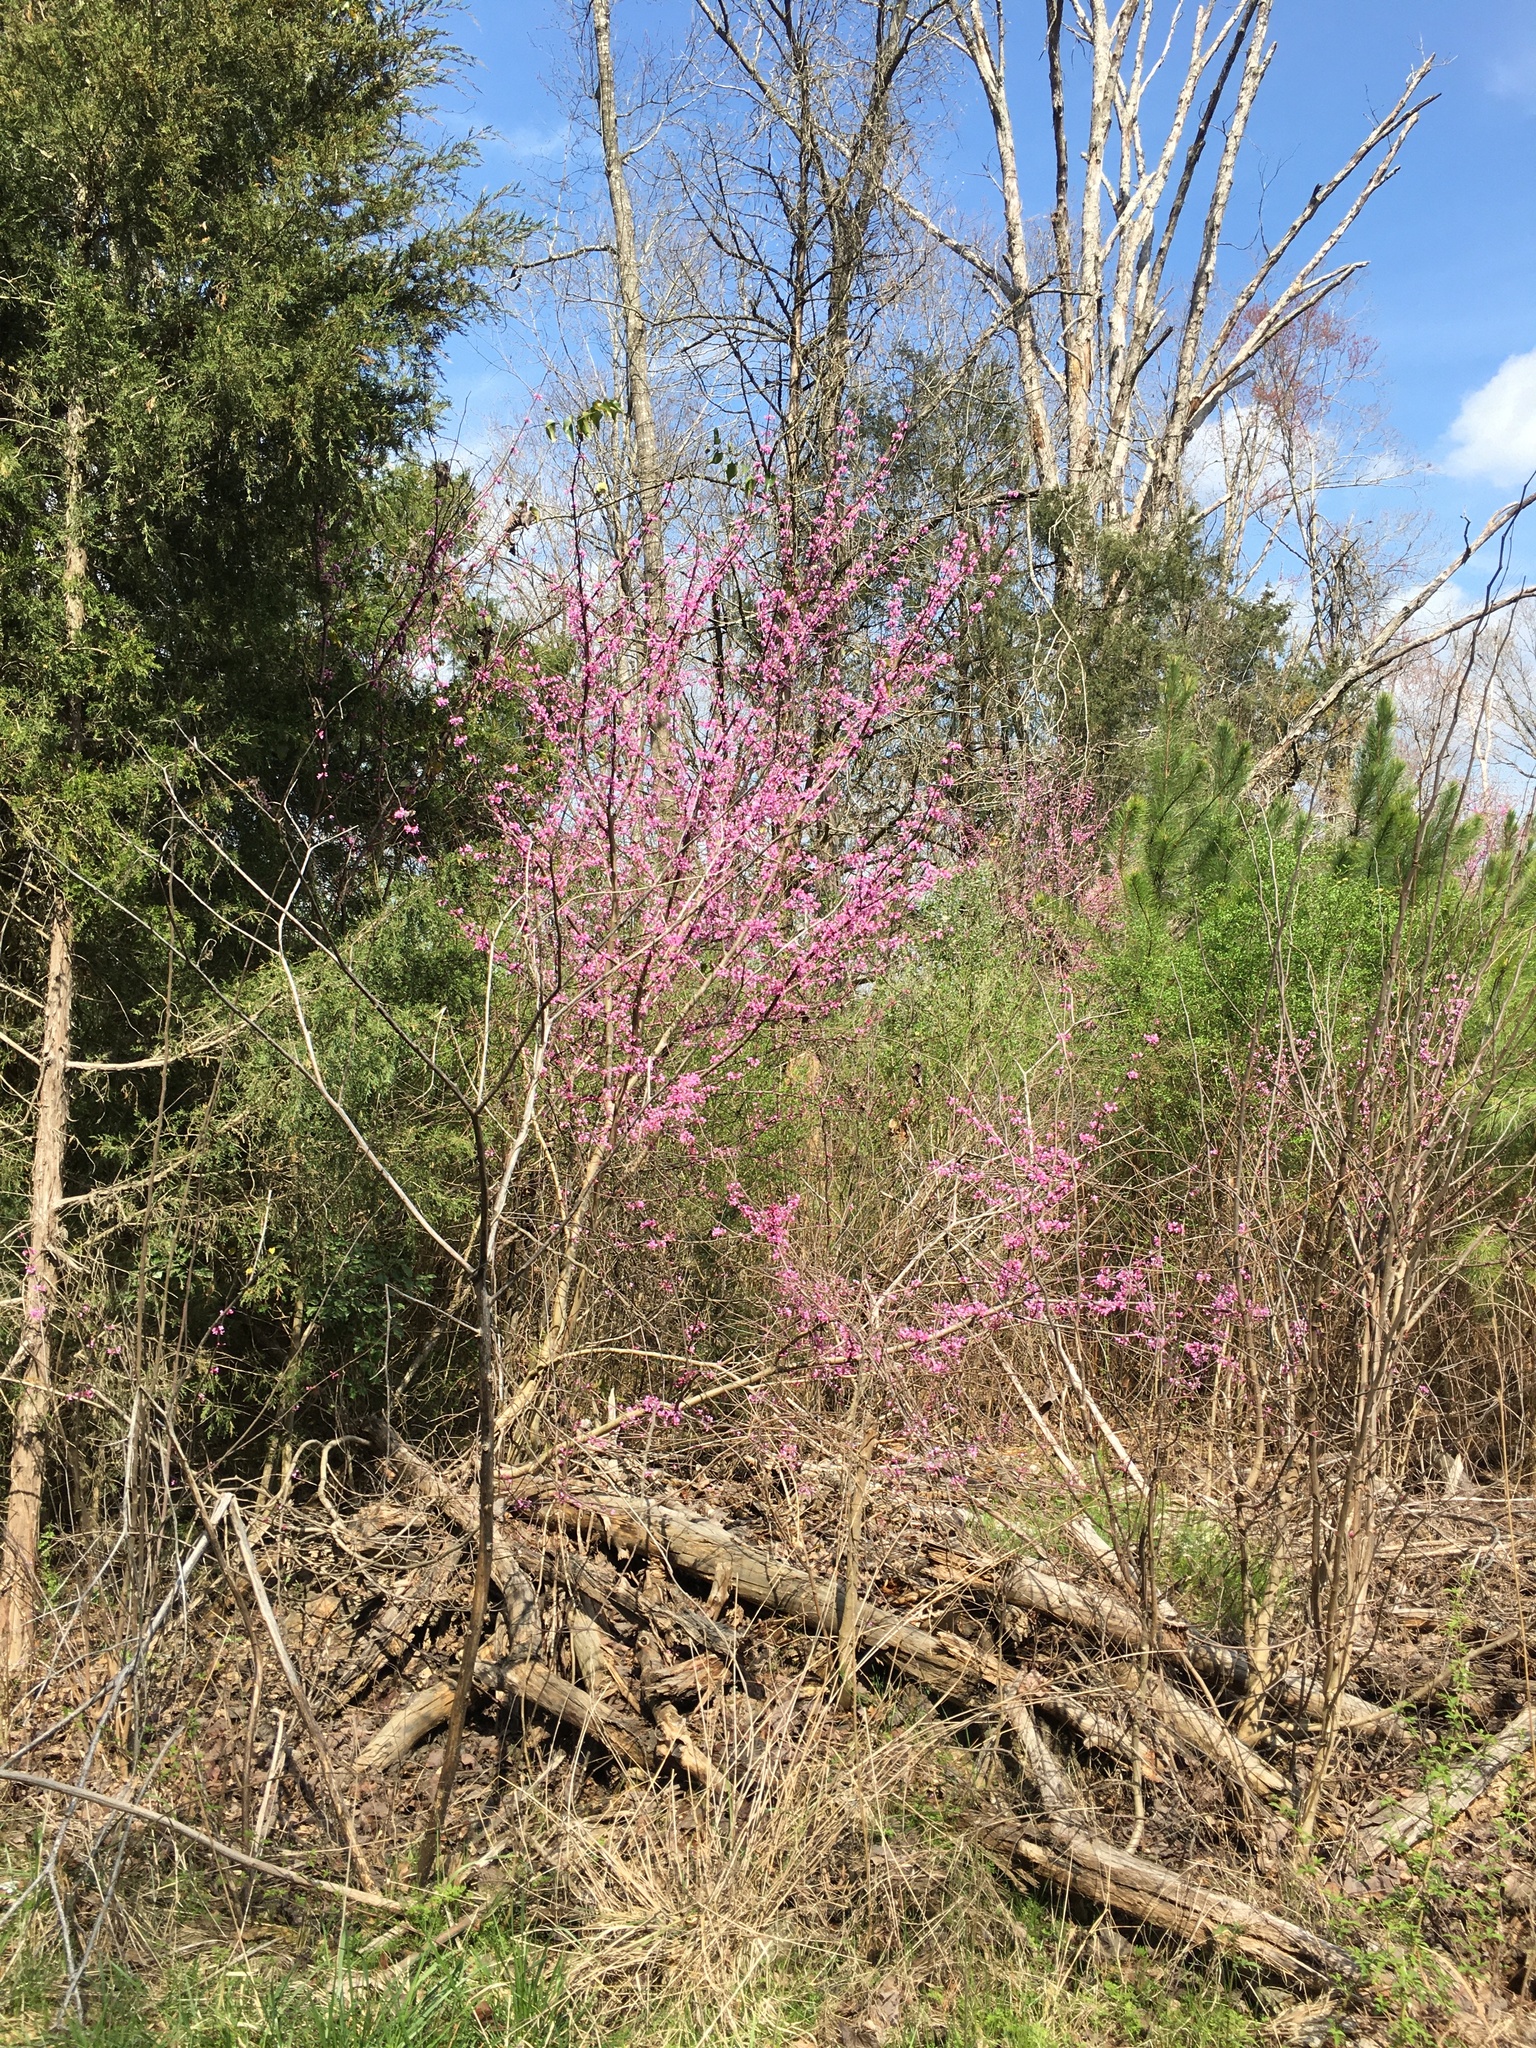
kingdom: Plantae
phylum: Tracheophyta
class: Magnoliopsida
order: Fabales
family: Fabaceae
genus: Cercis
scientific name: Cercis canadensis
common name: Eastern redbud
